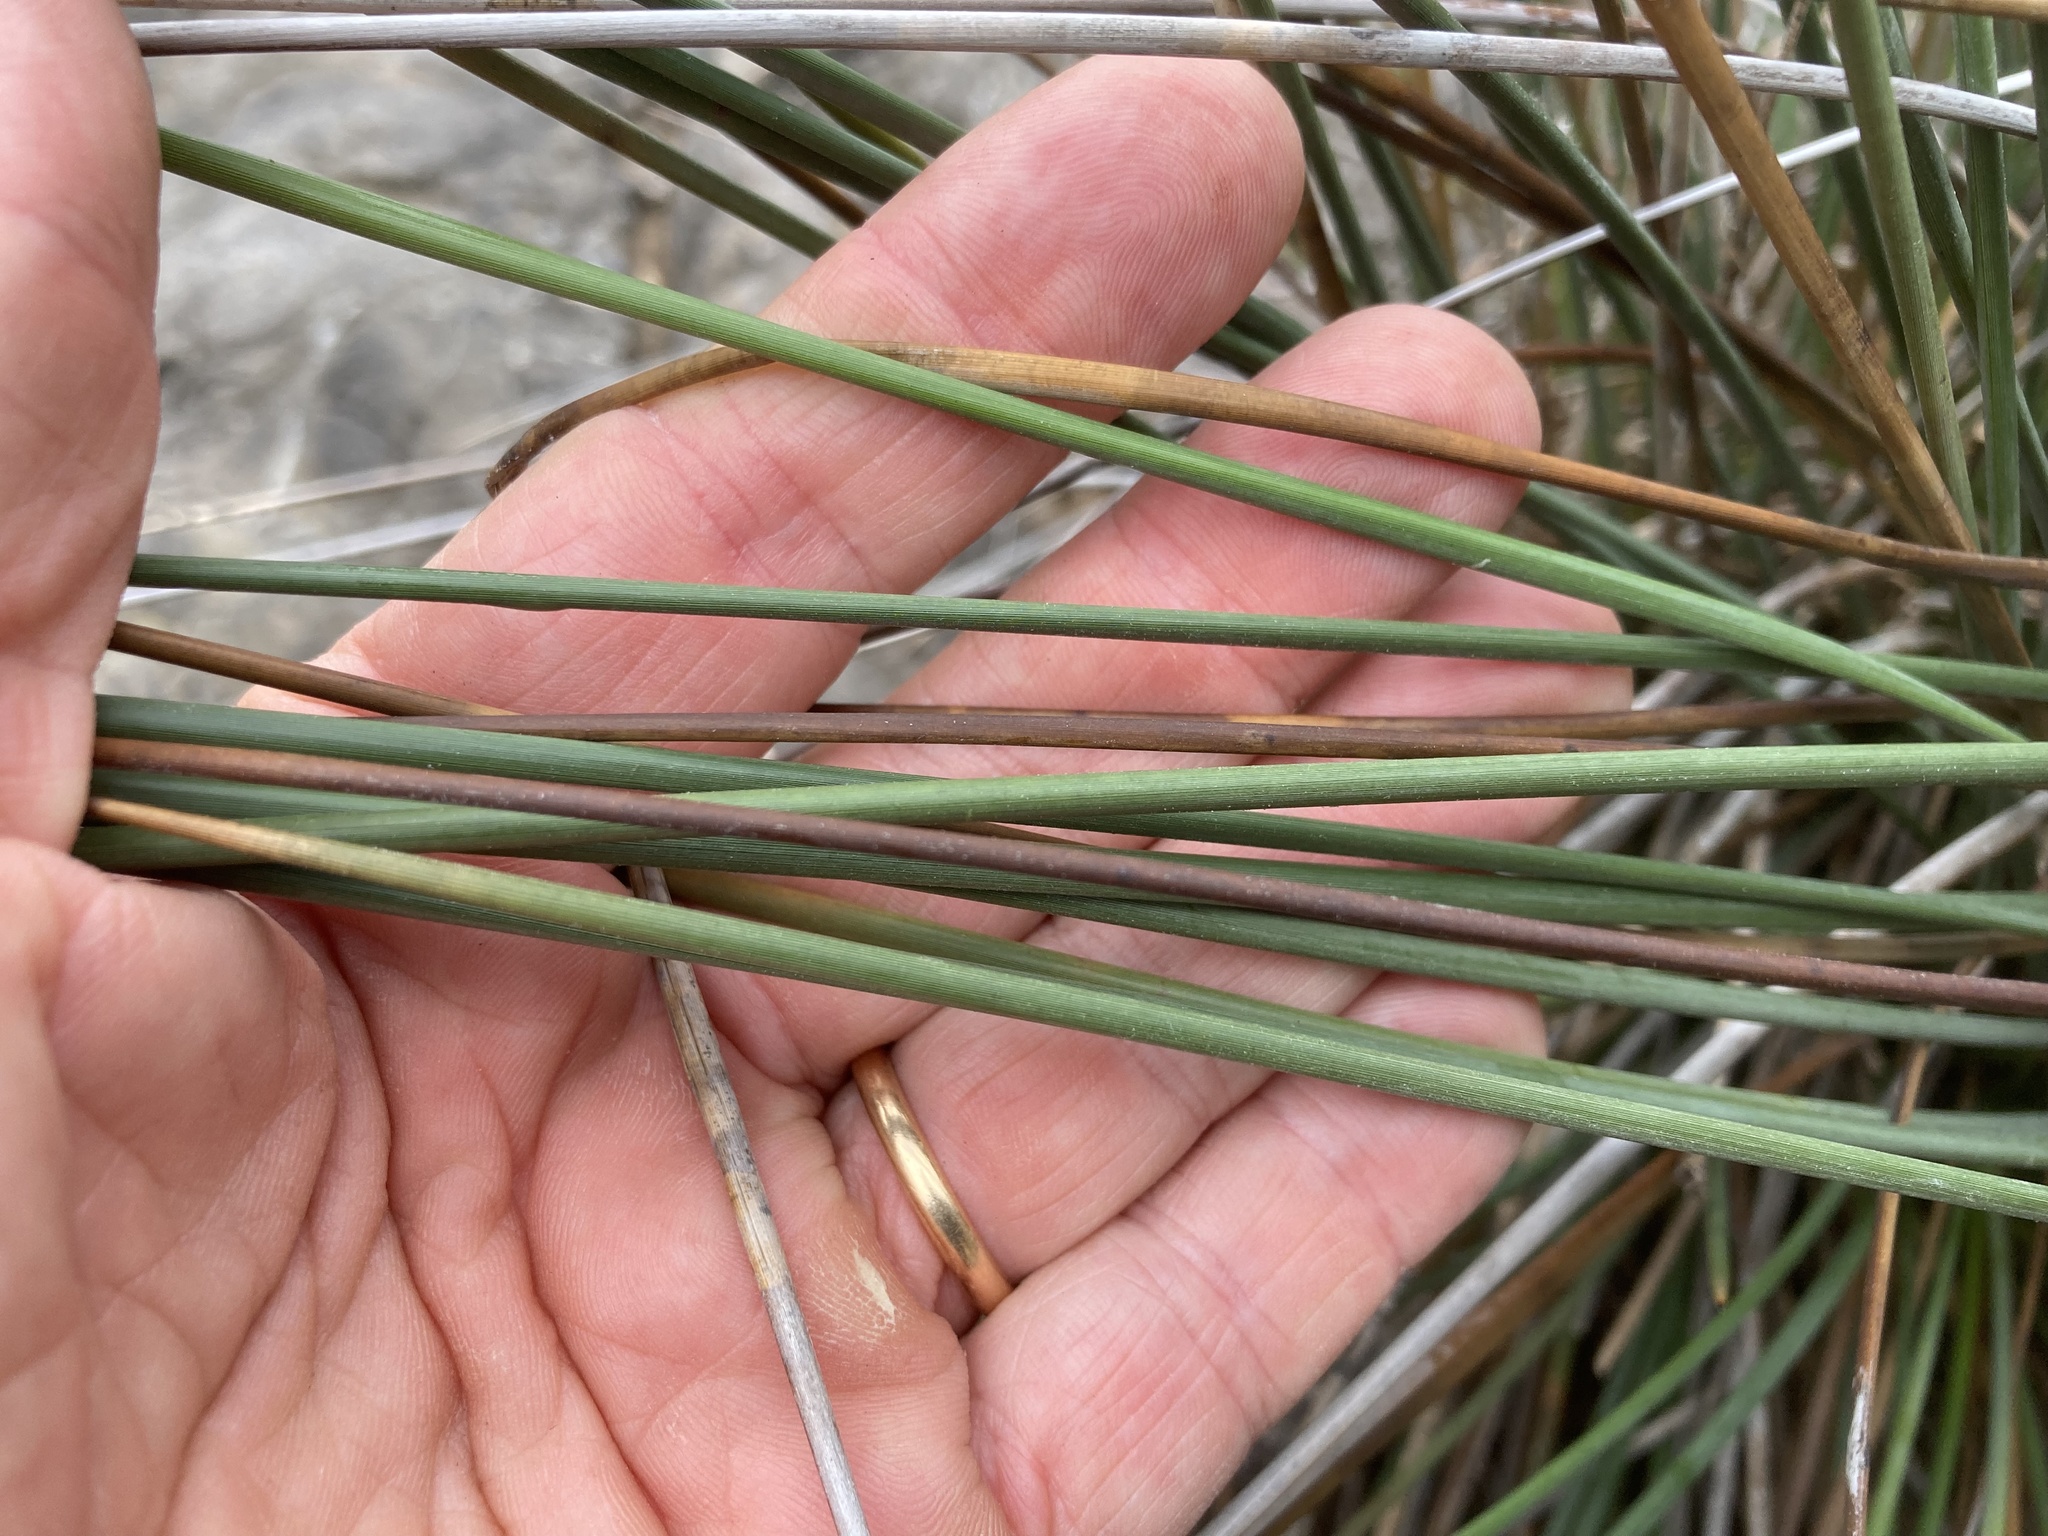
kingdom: Plantae
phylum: Tracheophyta
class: Liliopsida
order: Poales
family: Juncaceae
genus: Juncus
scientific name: Juncus acutus
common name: Sharp rush
